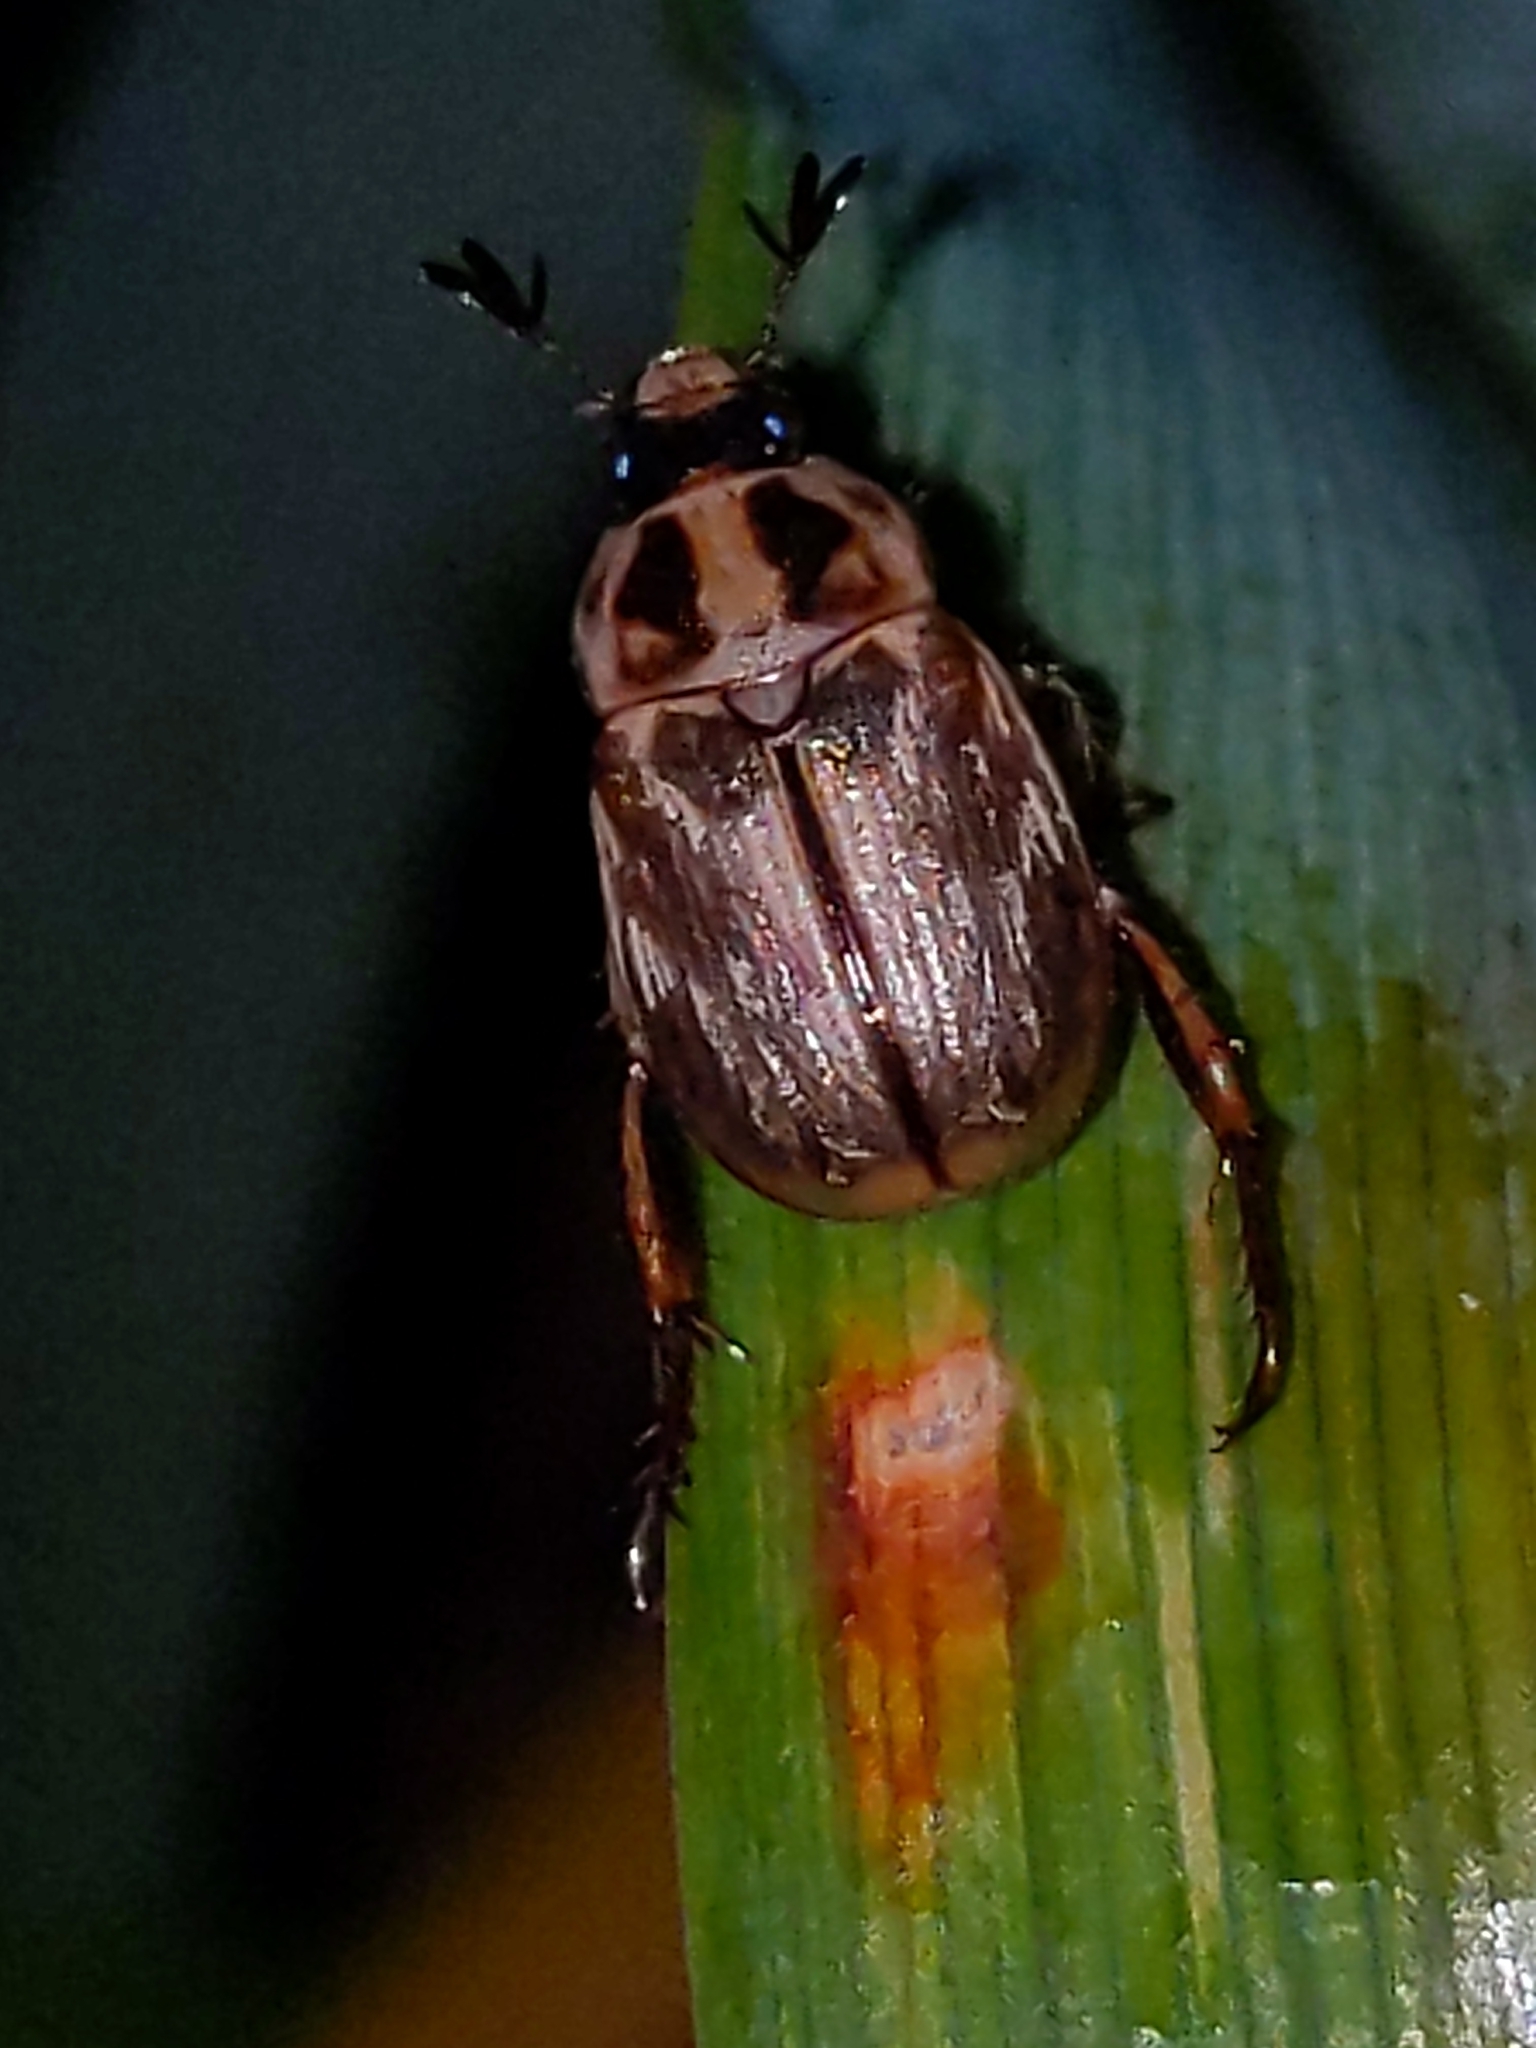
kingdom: Animalia
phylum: Arthropoda
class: Insecta
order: Coleoptera
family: Scarabaeidae
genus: Exomala
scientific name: Exomala orientalis
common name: Oriental beetle
